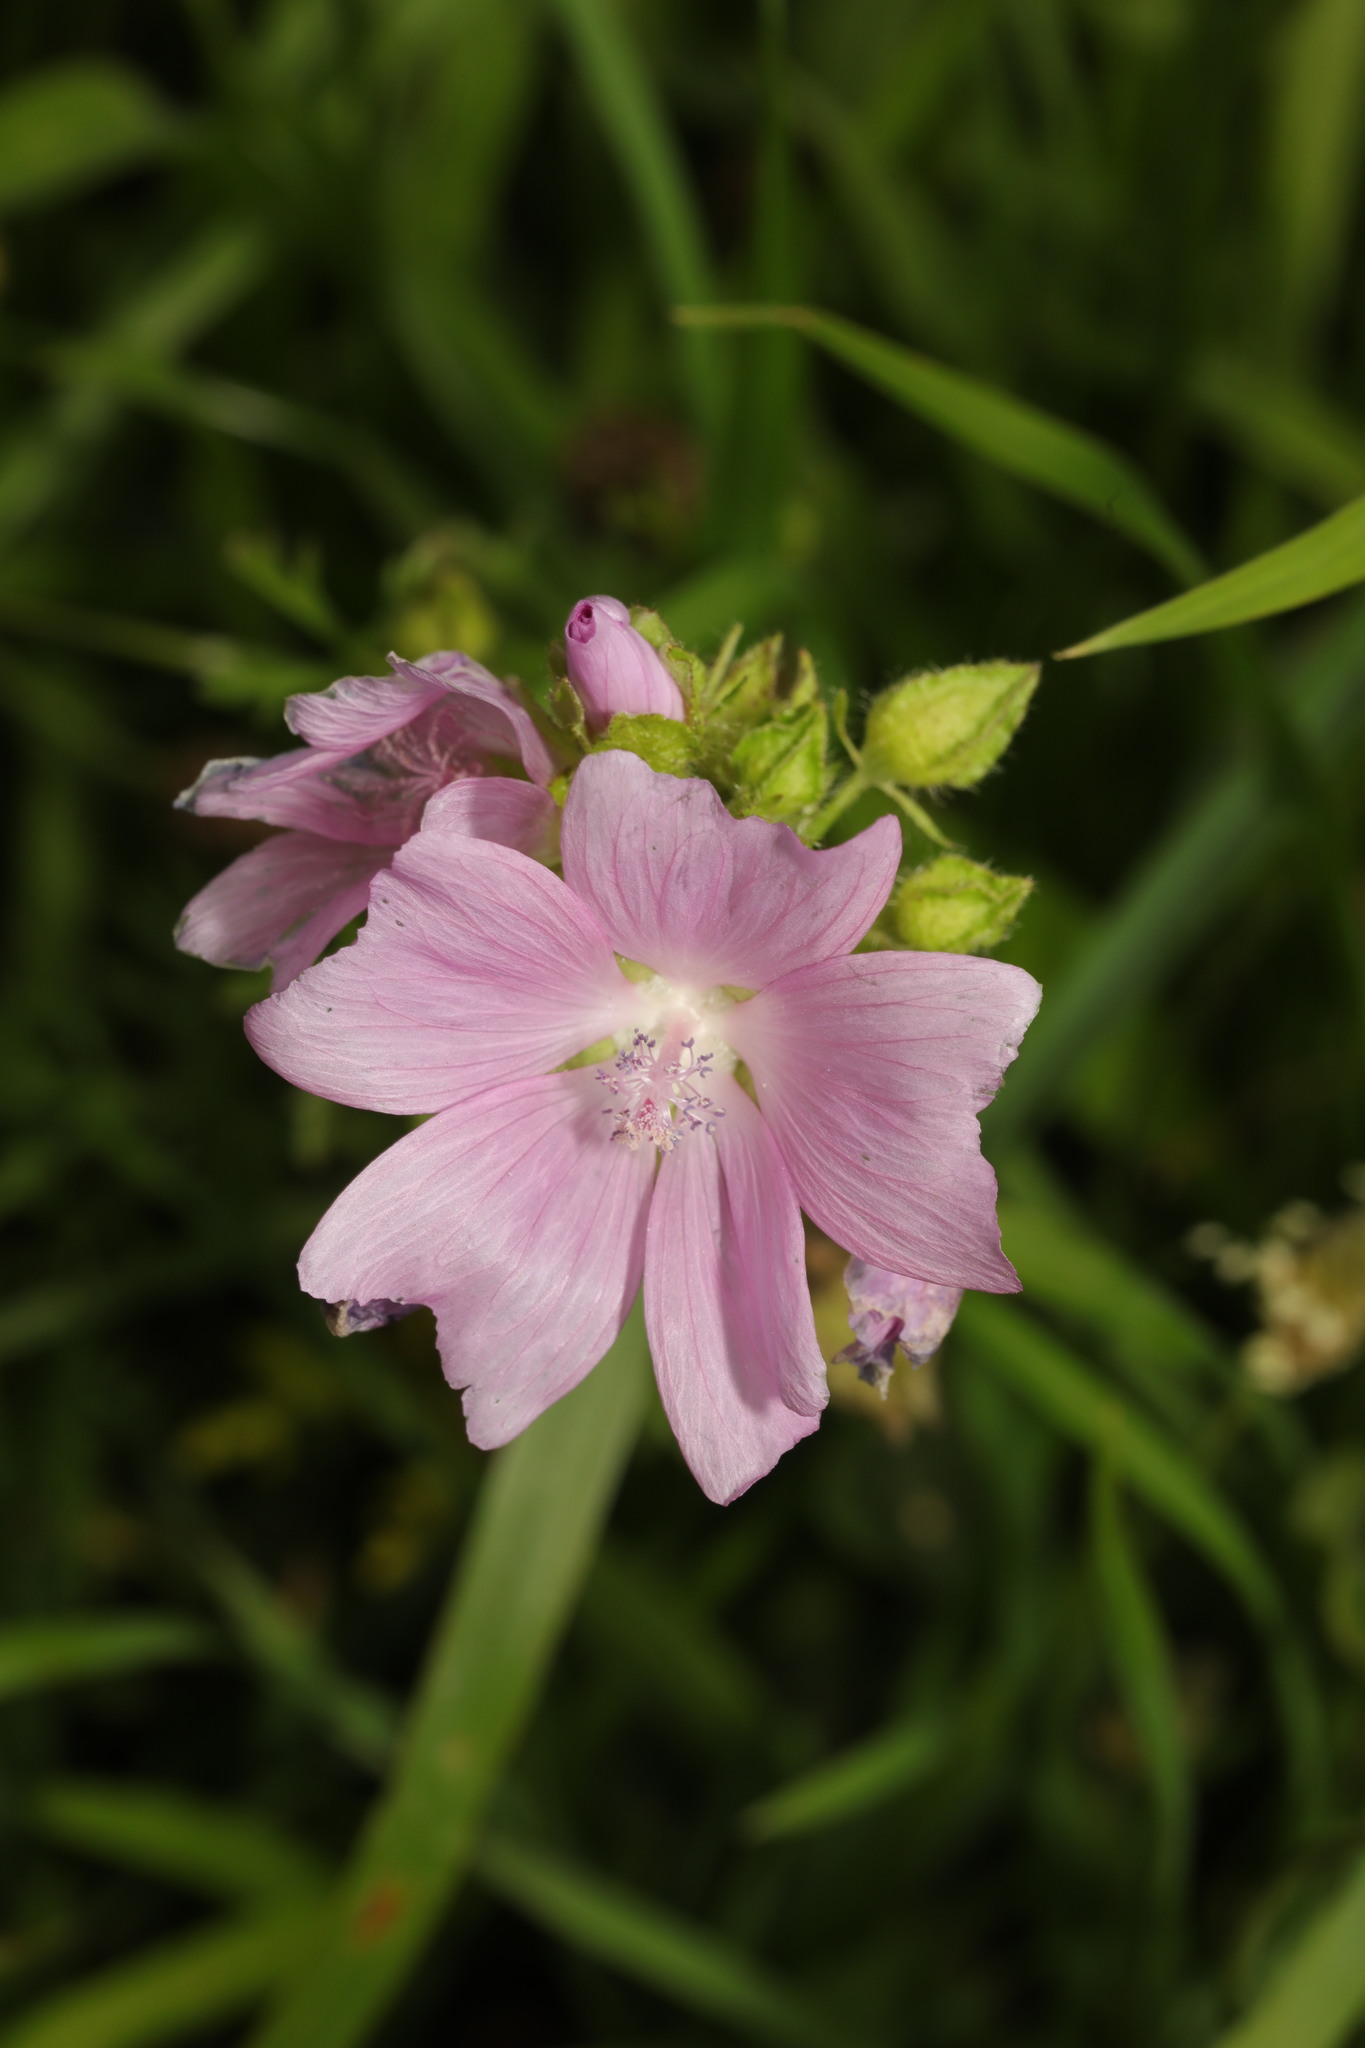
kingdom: Plantae
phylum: Tracheophyta
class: Magnoliopsida
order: Malvales
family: Malvaceae
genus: Malva
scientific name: Malva moschata
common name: Musk mallow
